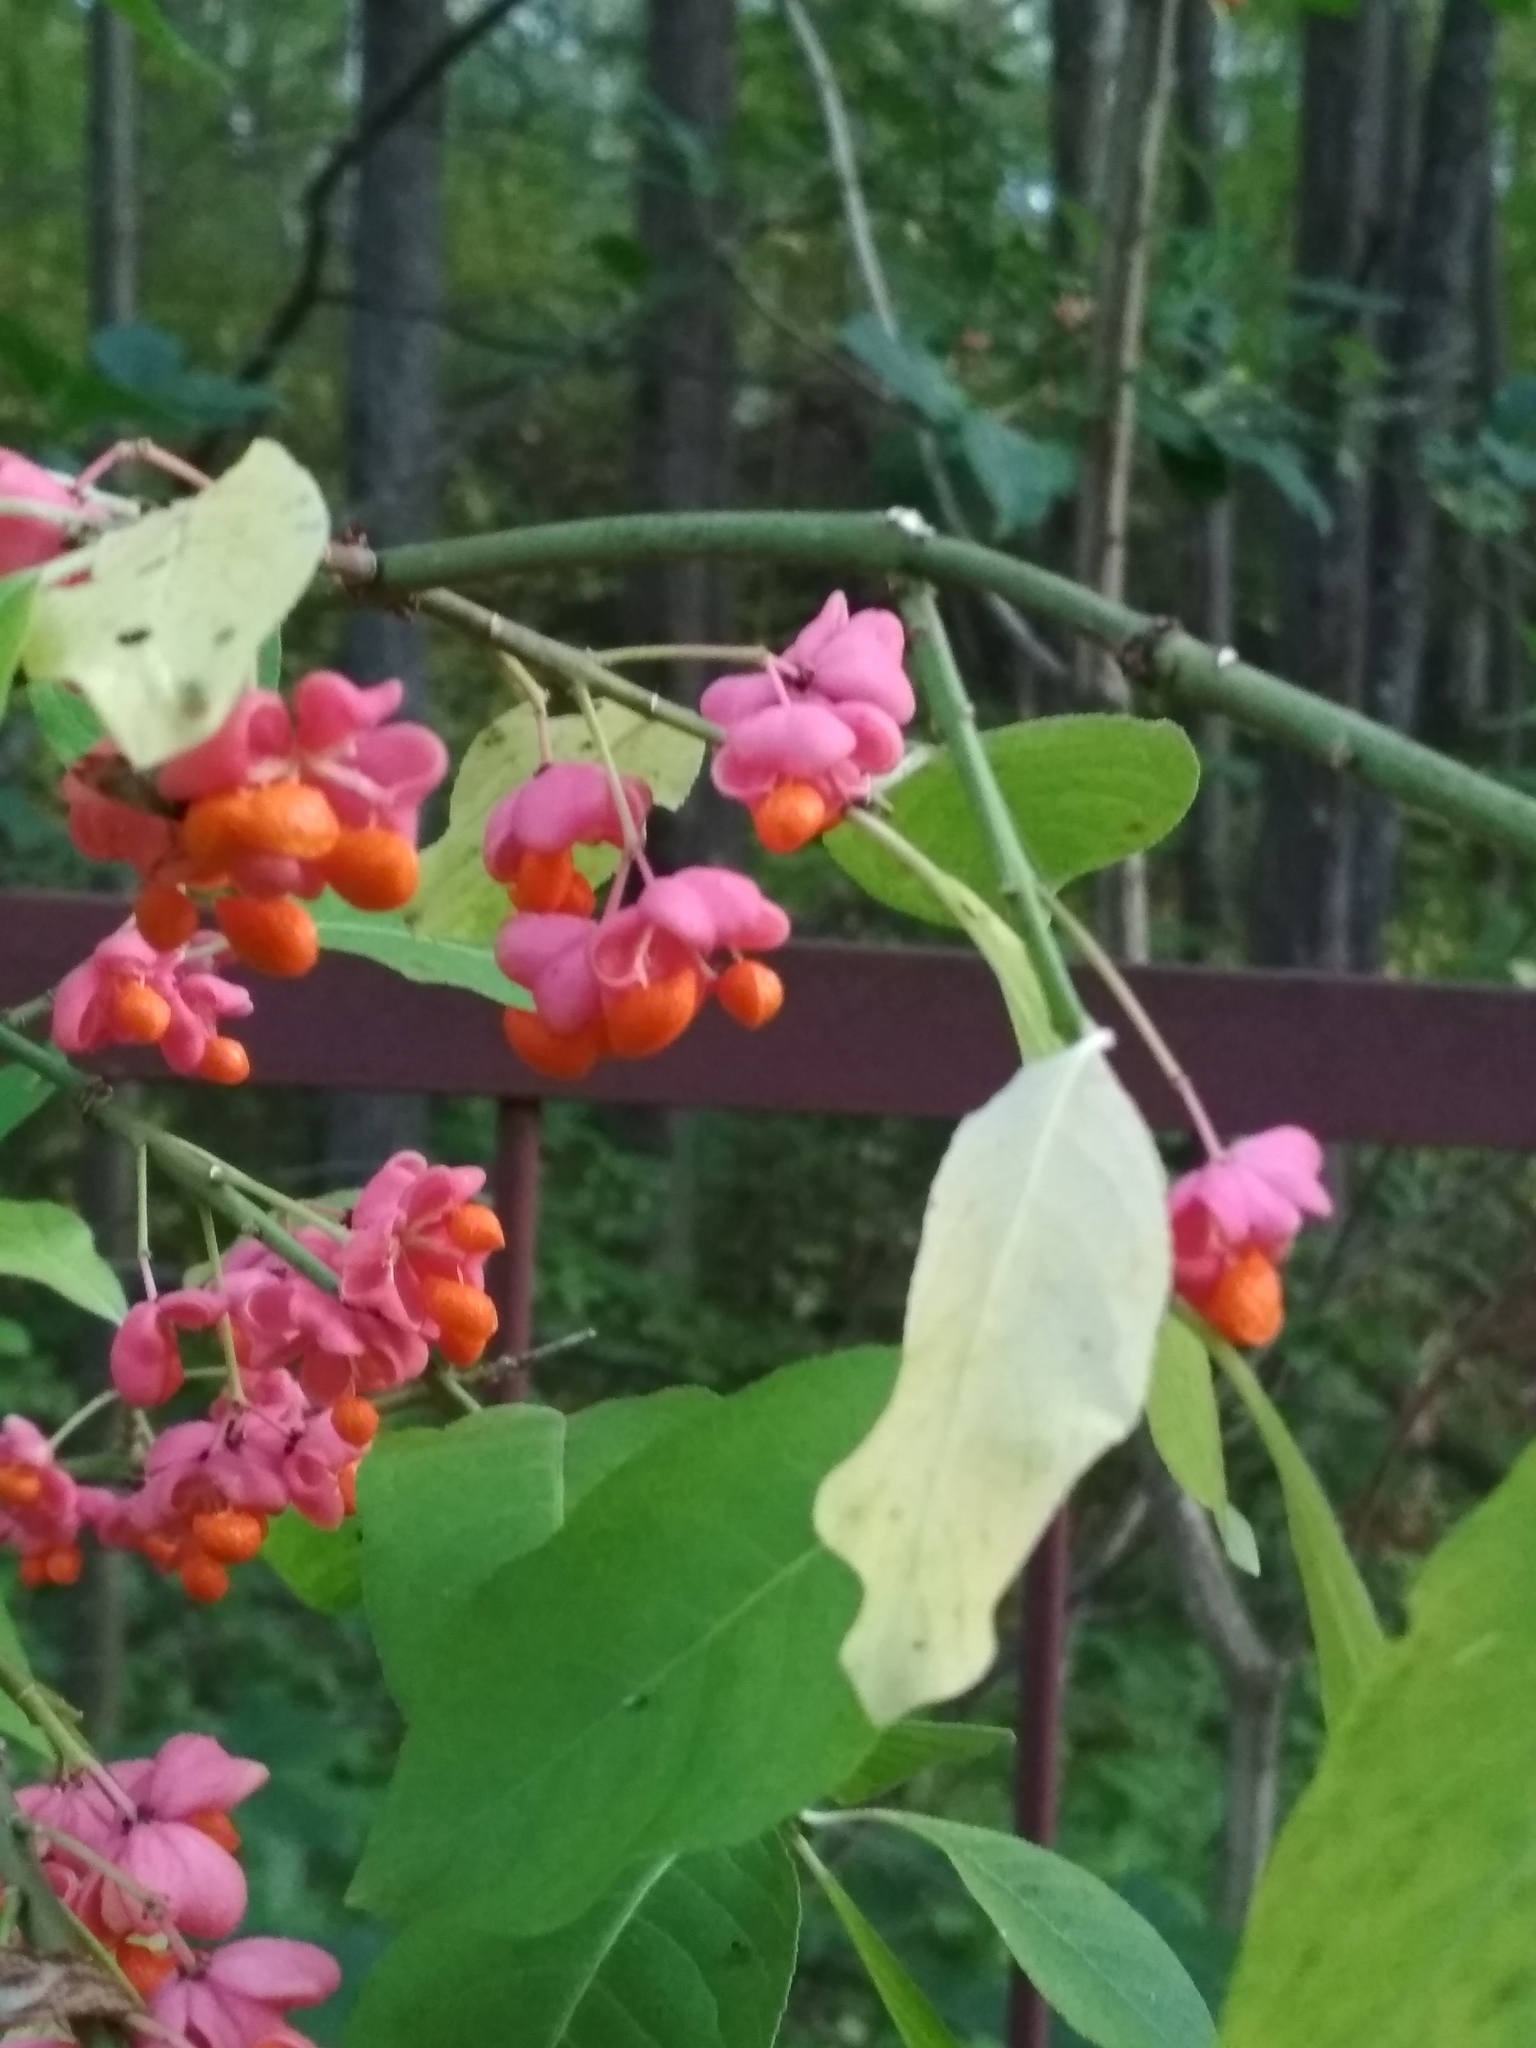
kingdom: Plantae
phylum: Tracheophyta
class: Magnoliopsida
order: Celastrales
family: Celastraceae
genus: Euonymus
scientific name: Euonymus europaeus
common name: Spindle
